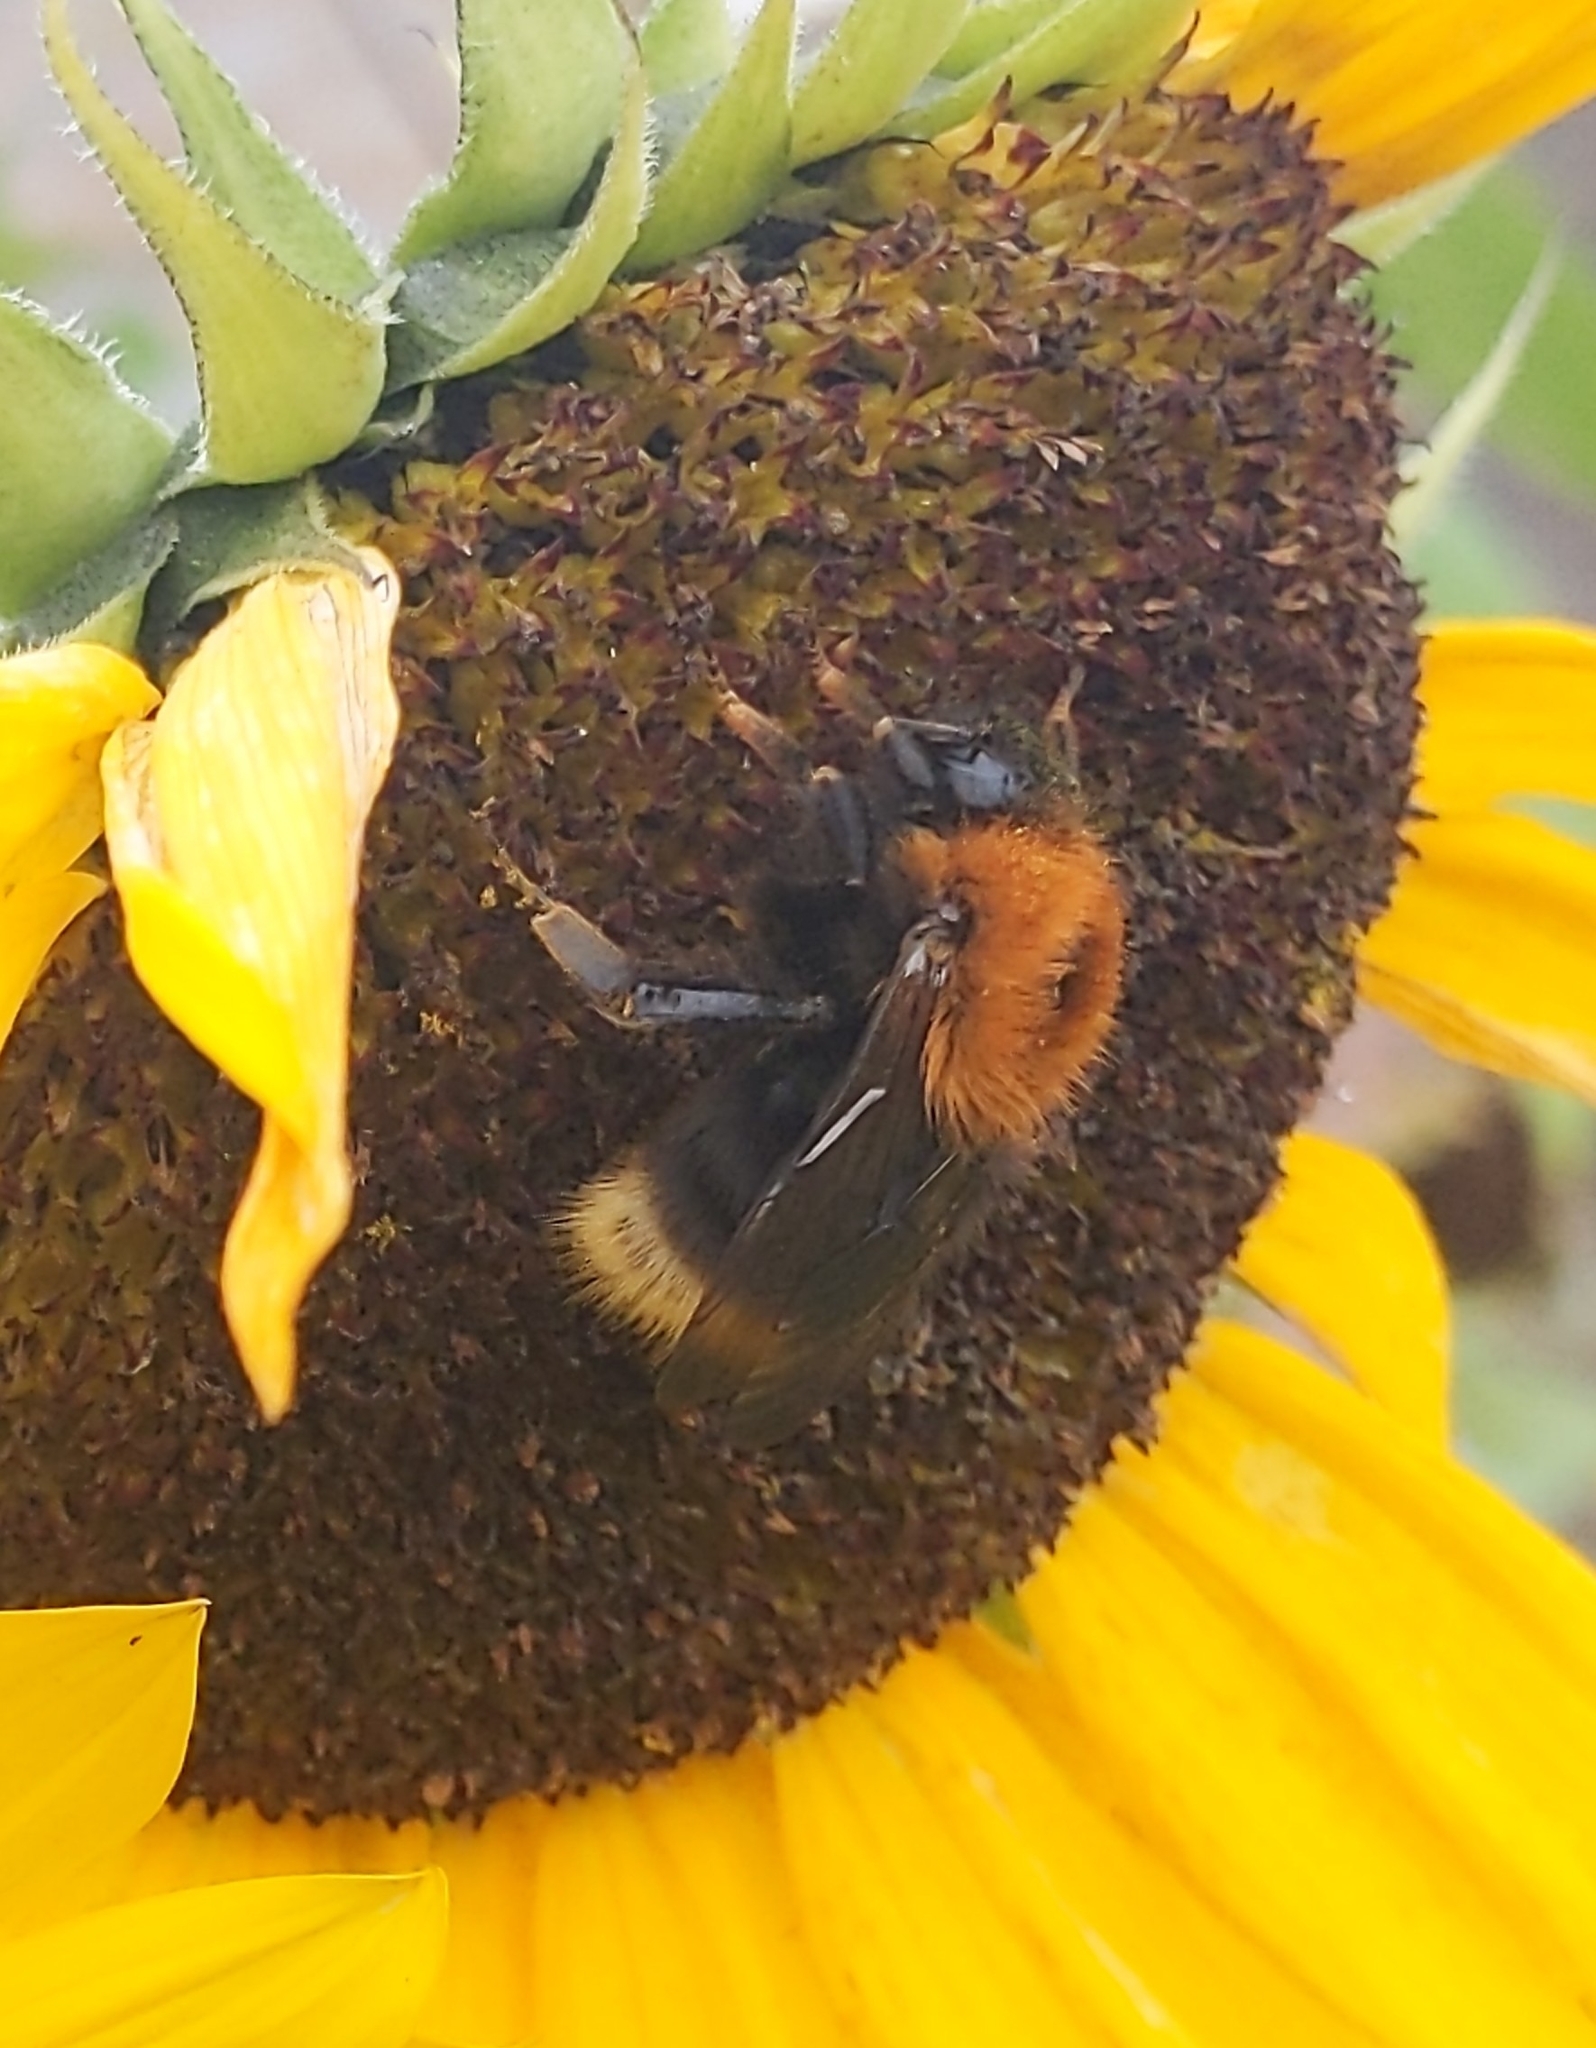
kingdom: Animalia
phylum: Arthropoda
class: Insecta
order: Hymenoptera
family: Apidae
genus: Bombus
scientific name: Bombus hypnorum
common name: New garden bumblebee
